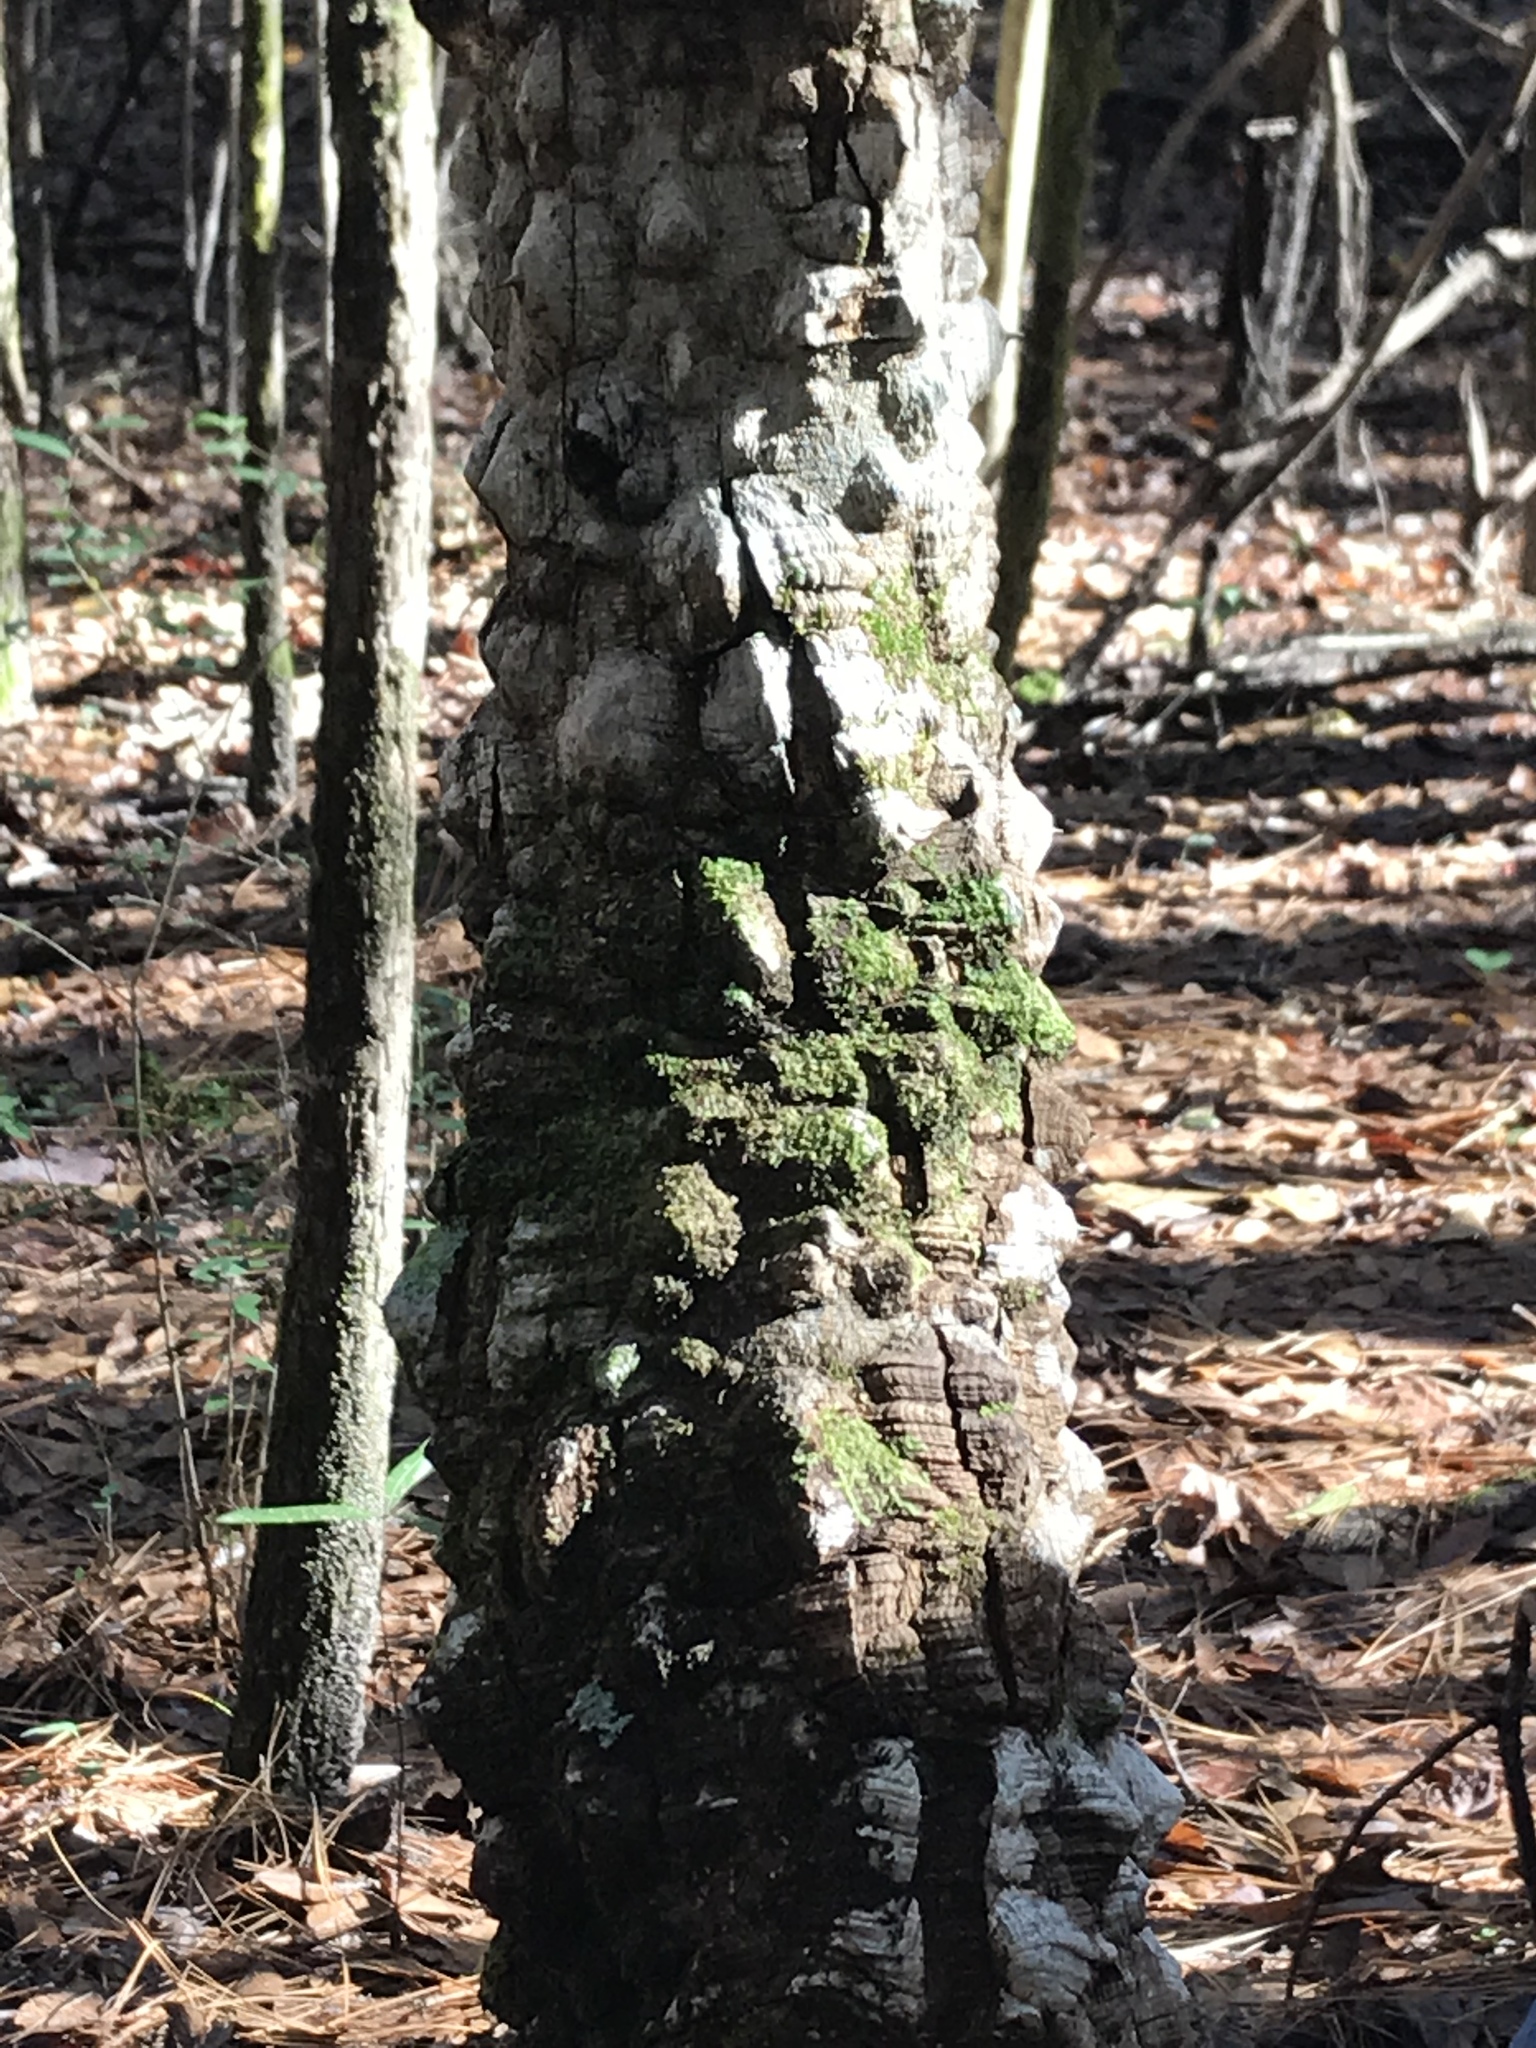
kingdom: Plantae
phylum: Tracheophyta
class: Magnoliopsida
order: Sapindales
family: Rutaceae
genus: Zanthoxylum
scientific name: Zanthoxylum clava-herculis
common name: Hercules'-club
